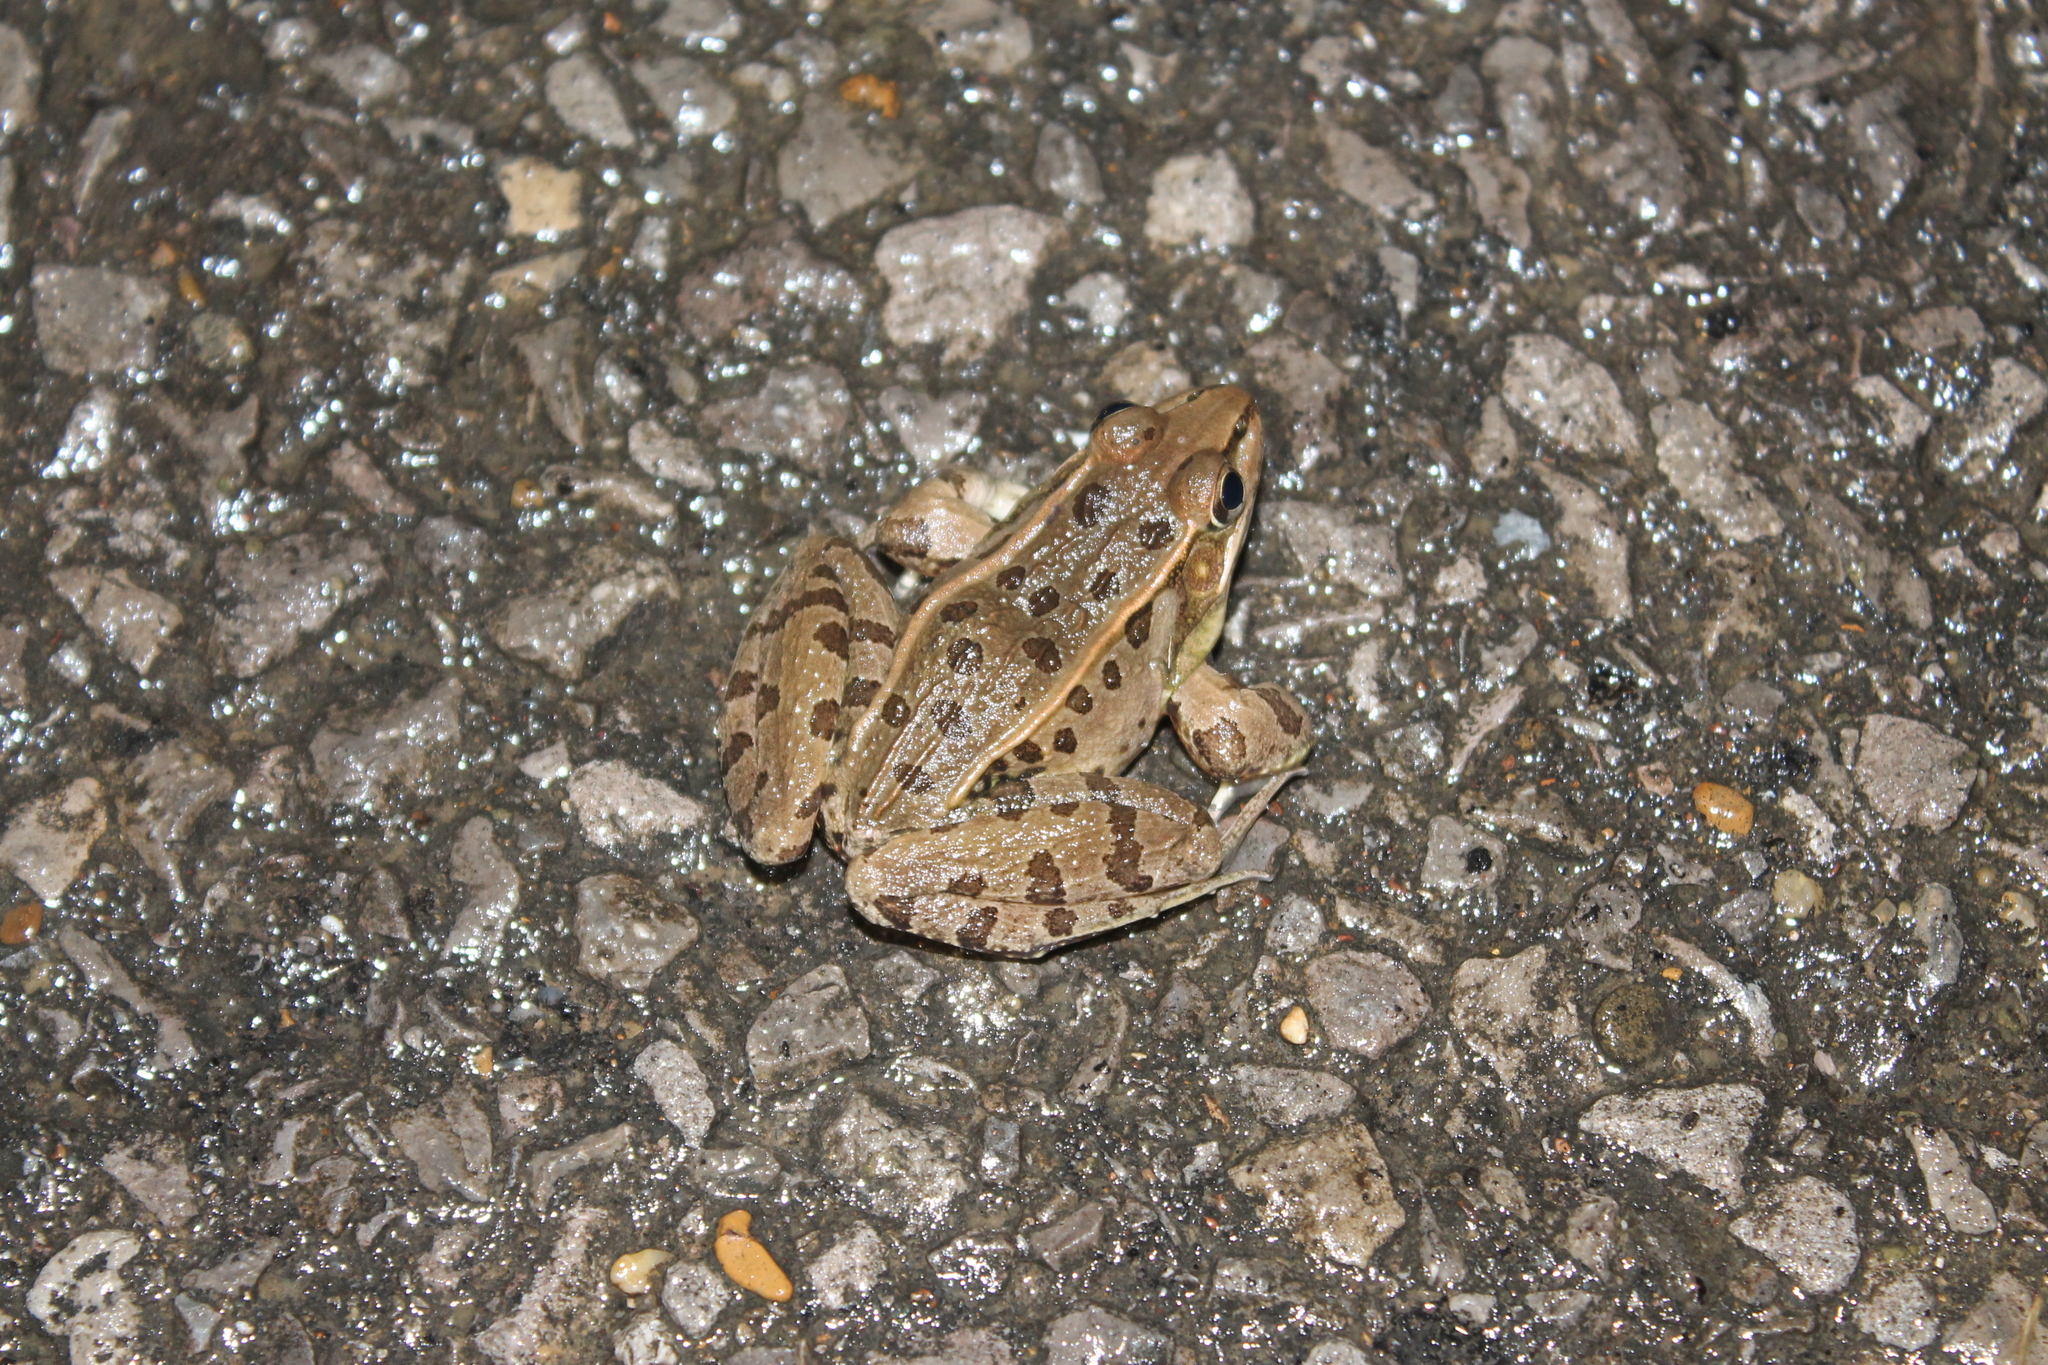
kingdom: Animalia
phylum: Chordata
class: Amphibia
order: Anura
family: Ranidae
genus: Lithobates
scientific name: Lithobates sphenocephalus
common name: Southern leopard frog
